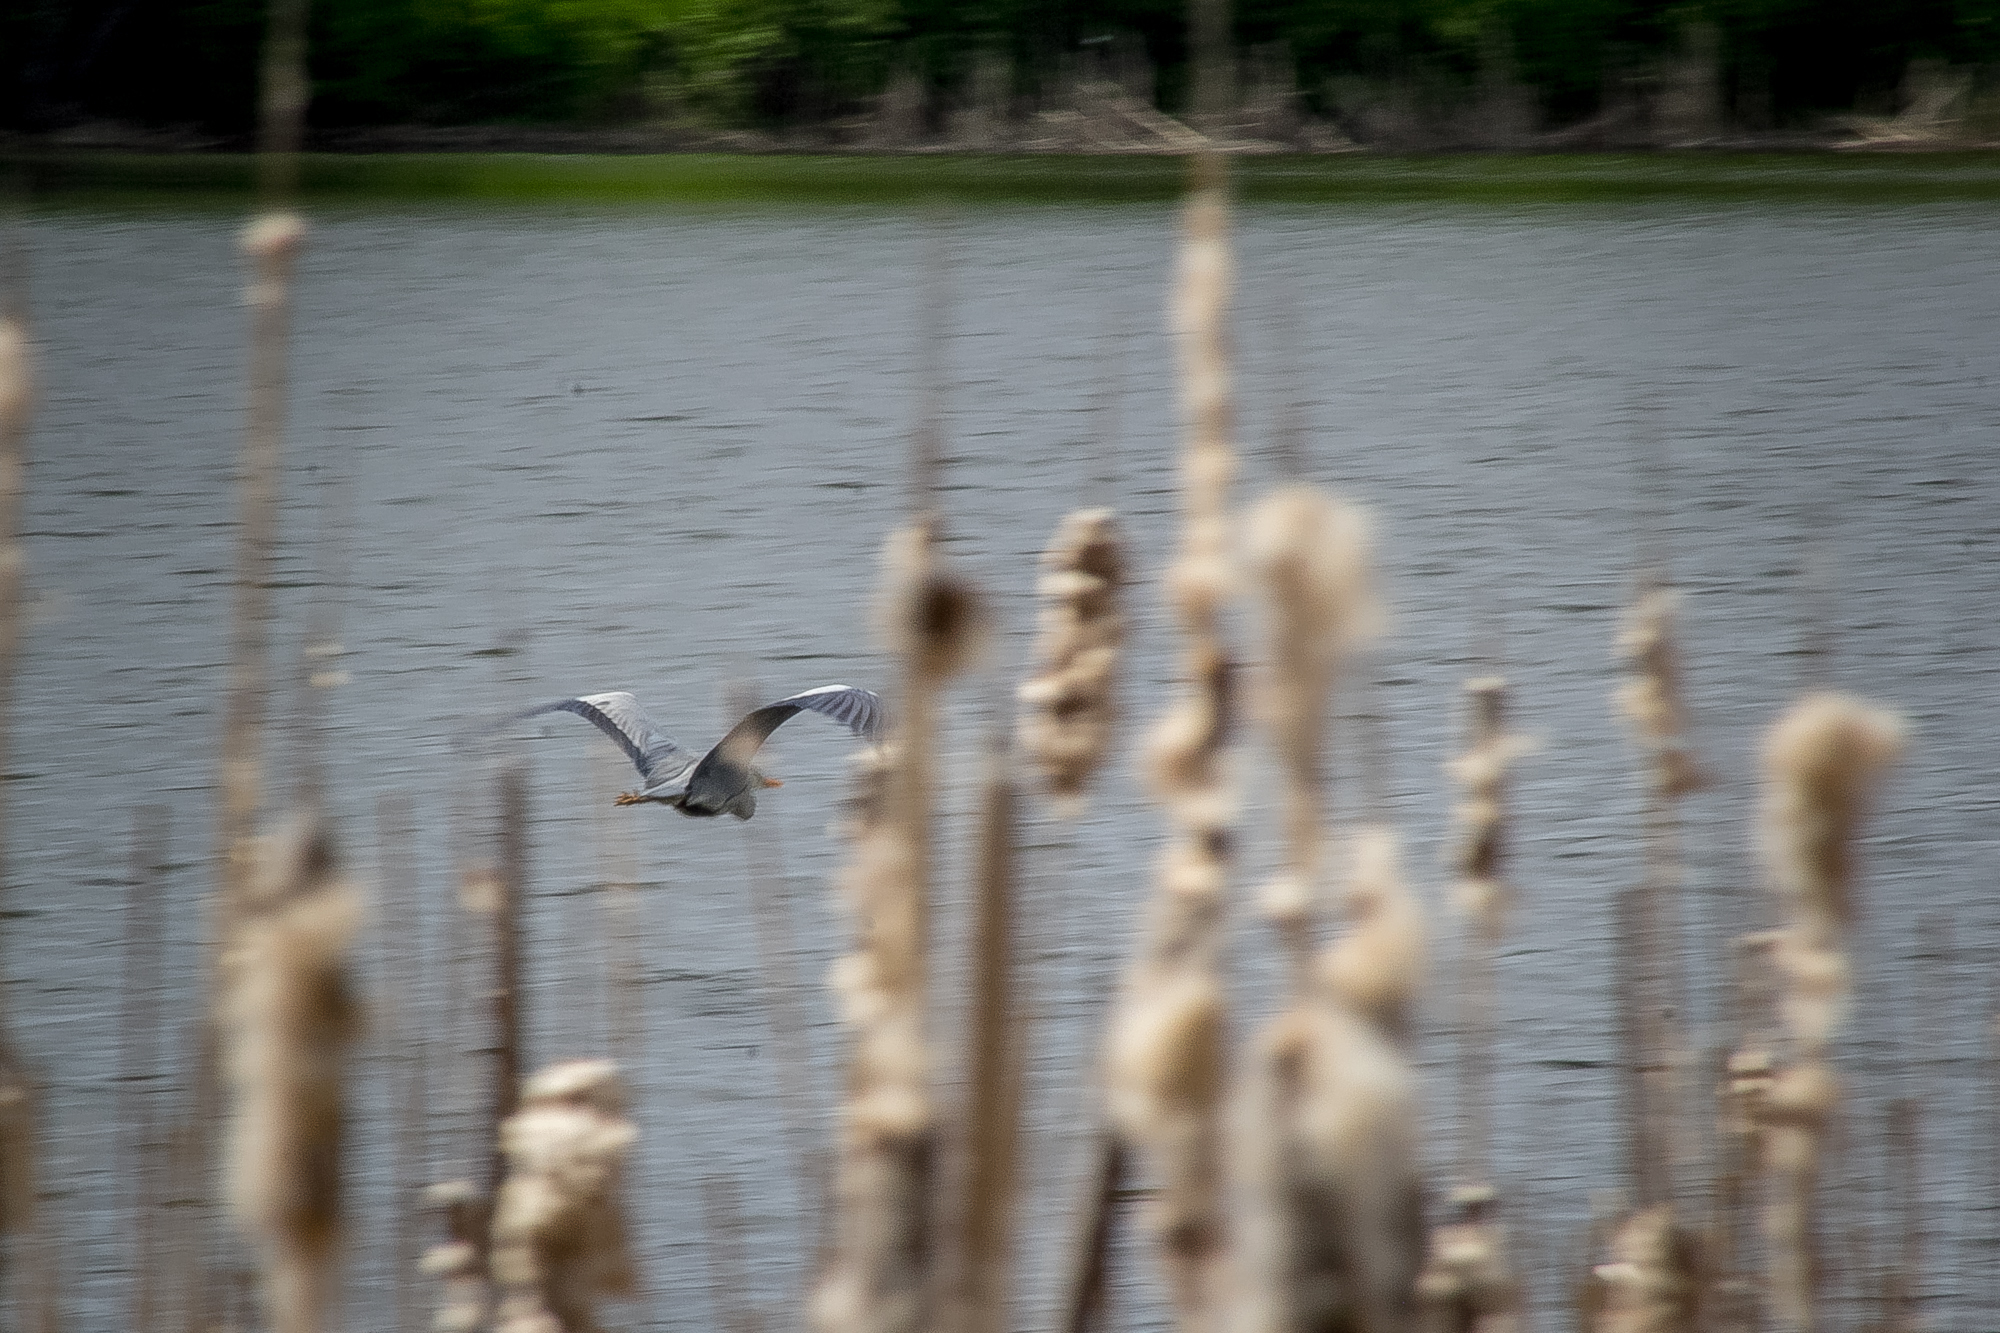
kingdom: Animalia
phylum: Chordata
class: Aves
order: Pelecaniformes
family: Ardeidae
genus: Ardea
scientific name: Ardea cinerea
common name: Grey heron
